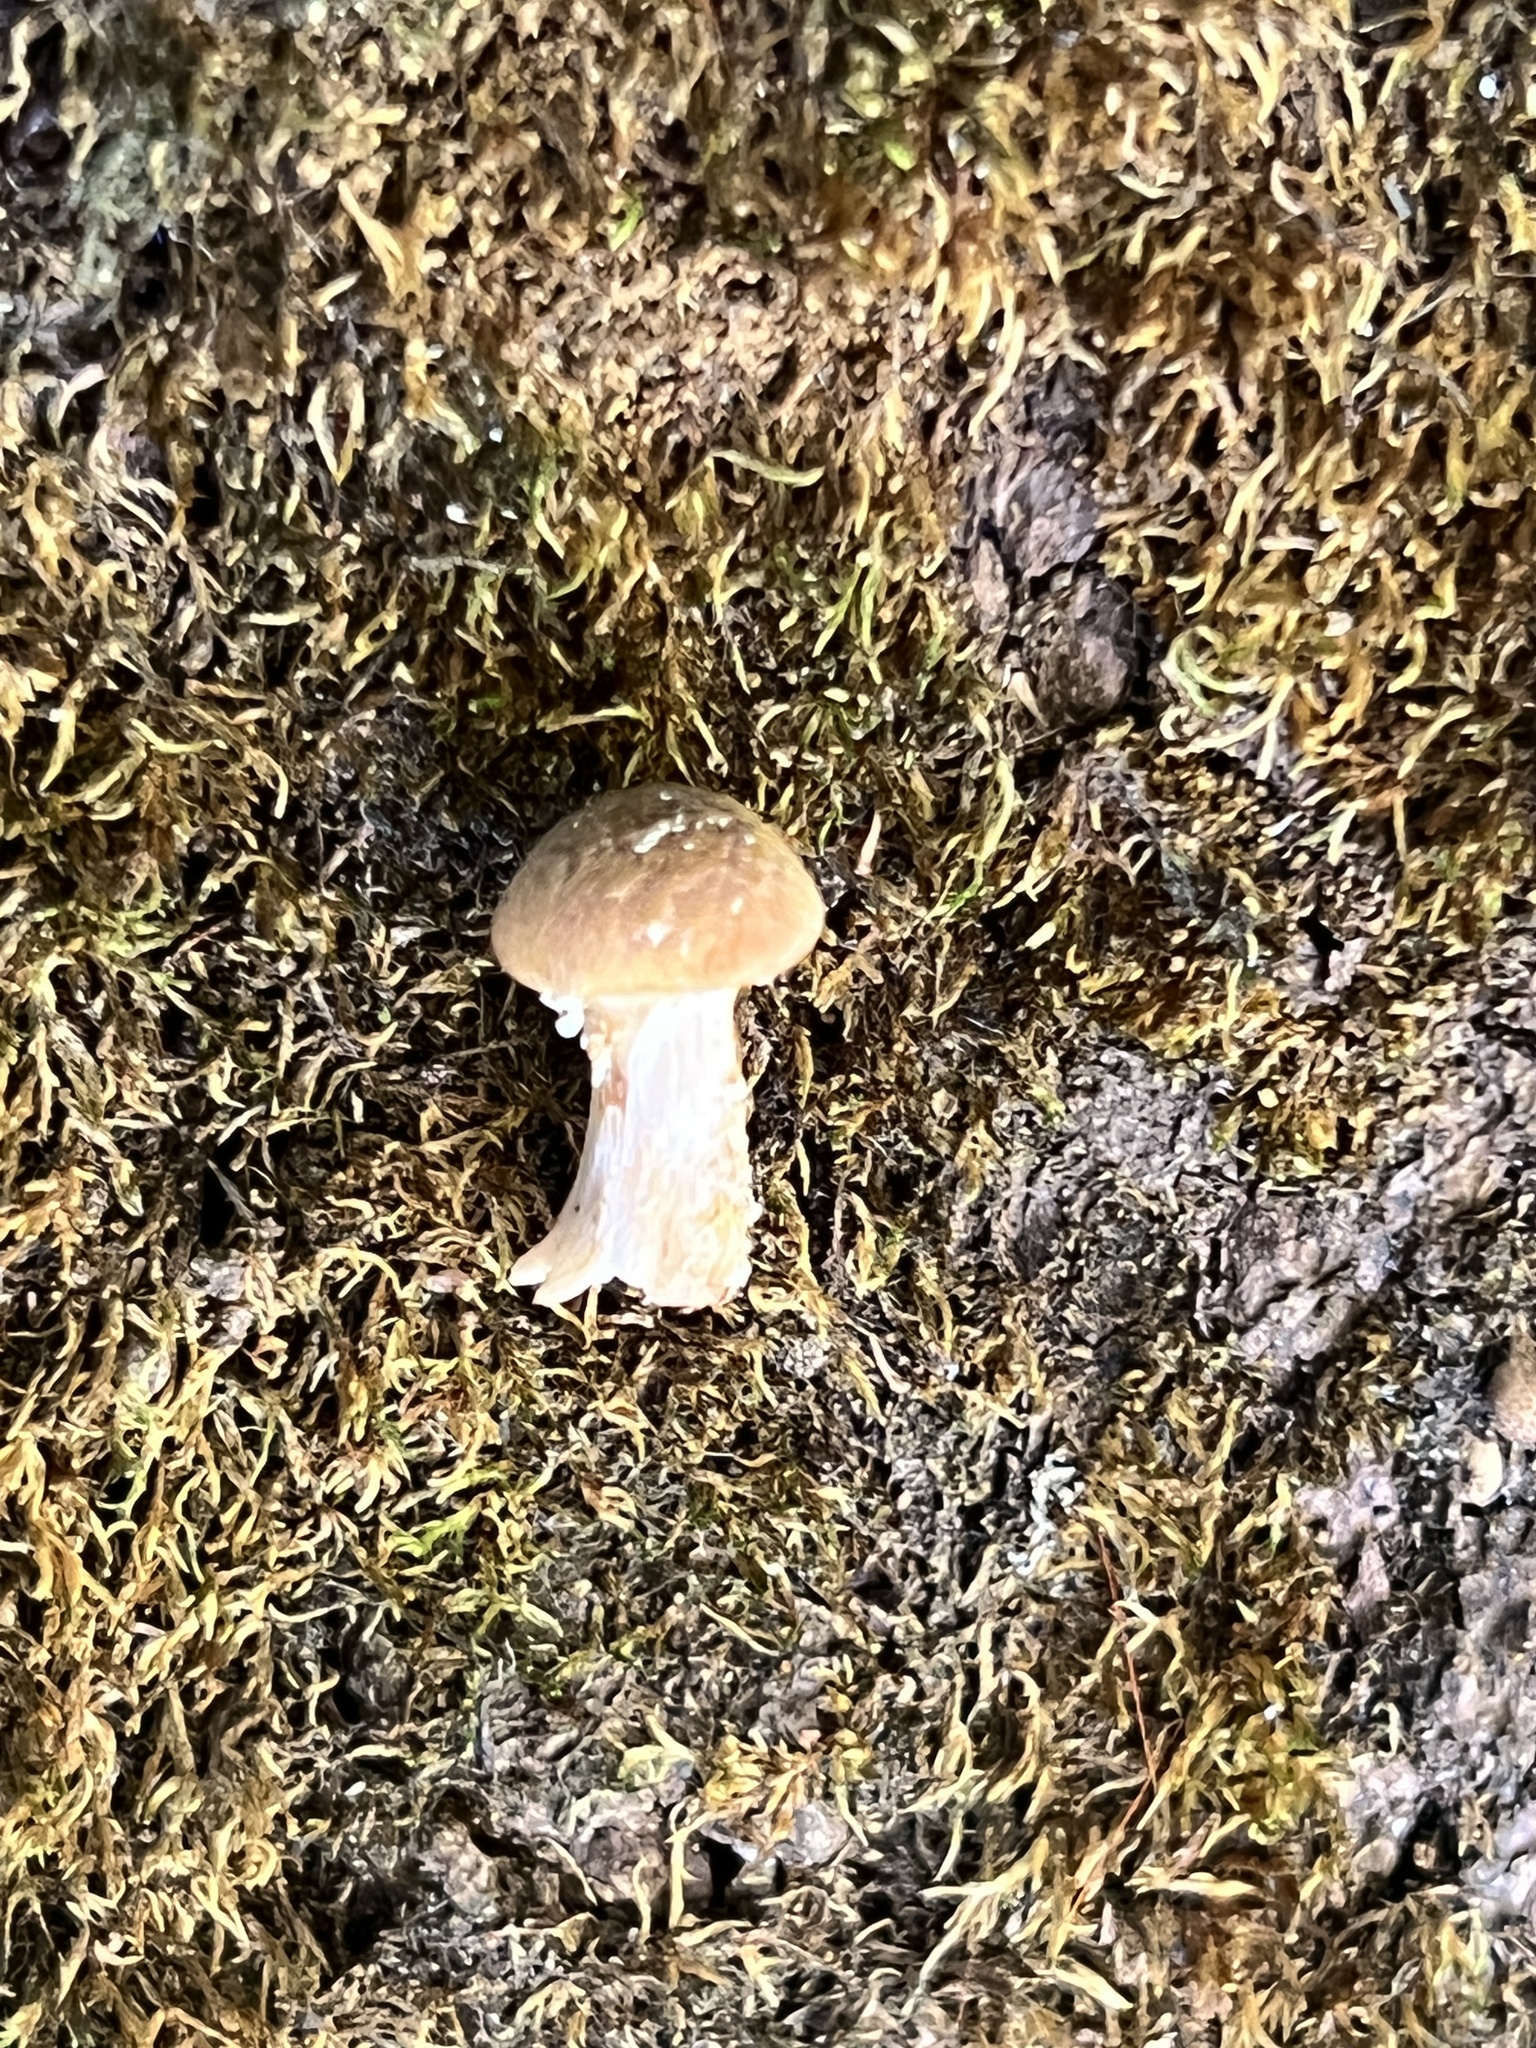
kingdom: Fungi
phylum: Basidiomycota
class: Agaricomycetes
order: Agaricales
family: Physalacriaceae
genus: Armillaria
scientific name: Armillaria gallica
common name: Bulbous honey fungus
